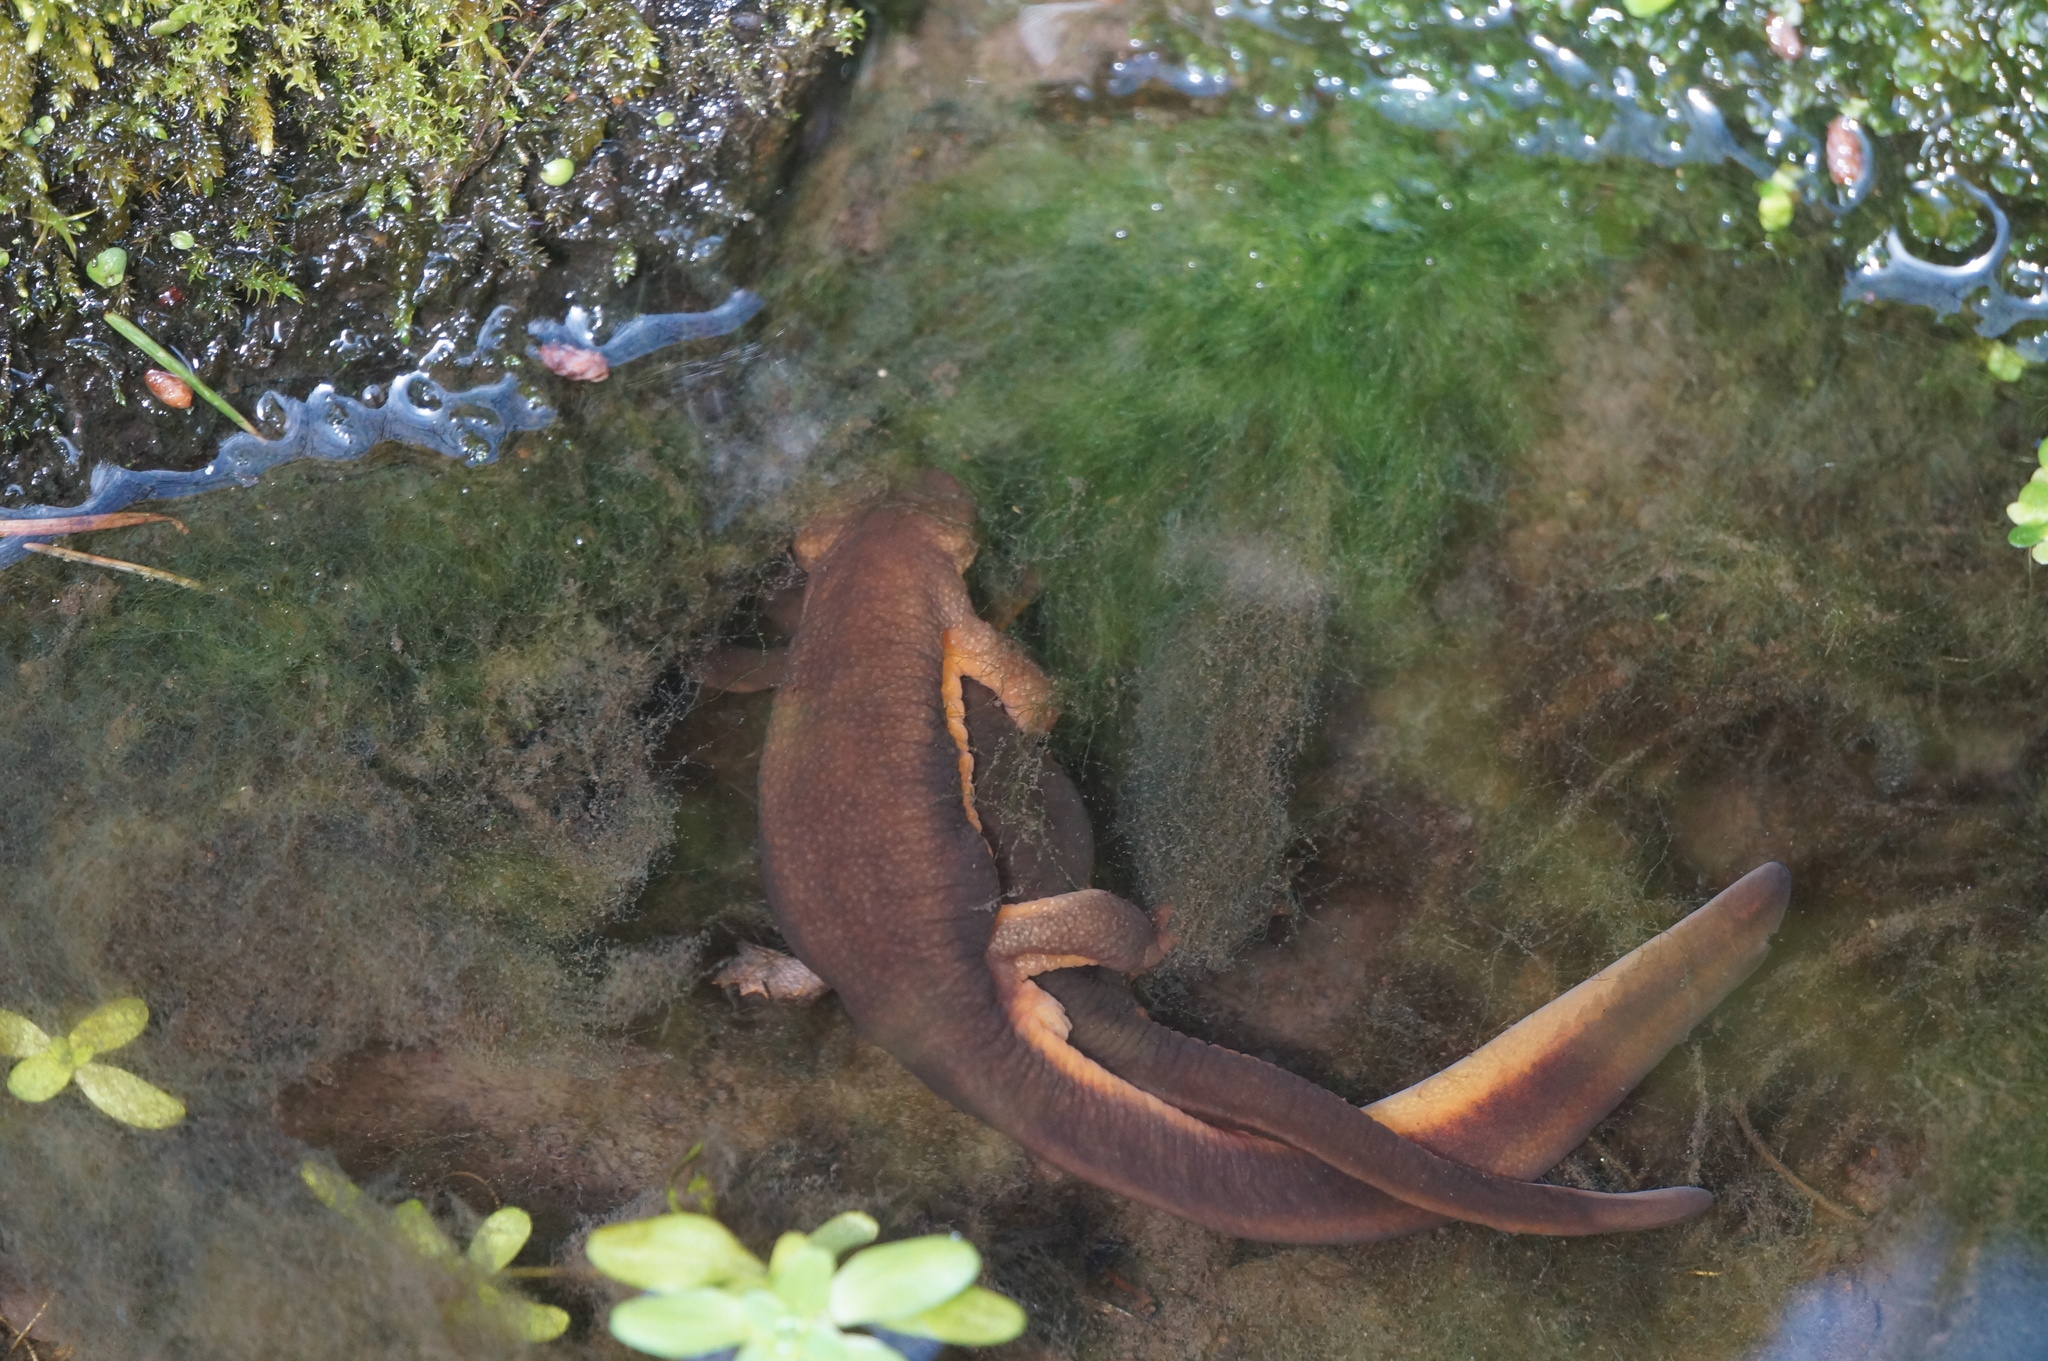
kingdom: Animalia
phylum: Chordata
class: Amphibia
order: Caudata
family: Salamandridae
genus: Taricha
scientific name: Taricha granulosa
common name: Roughskin newt
